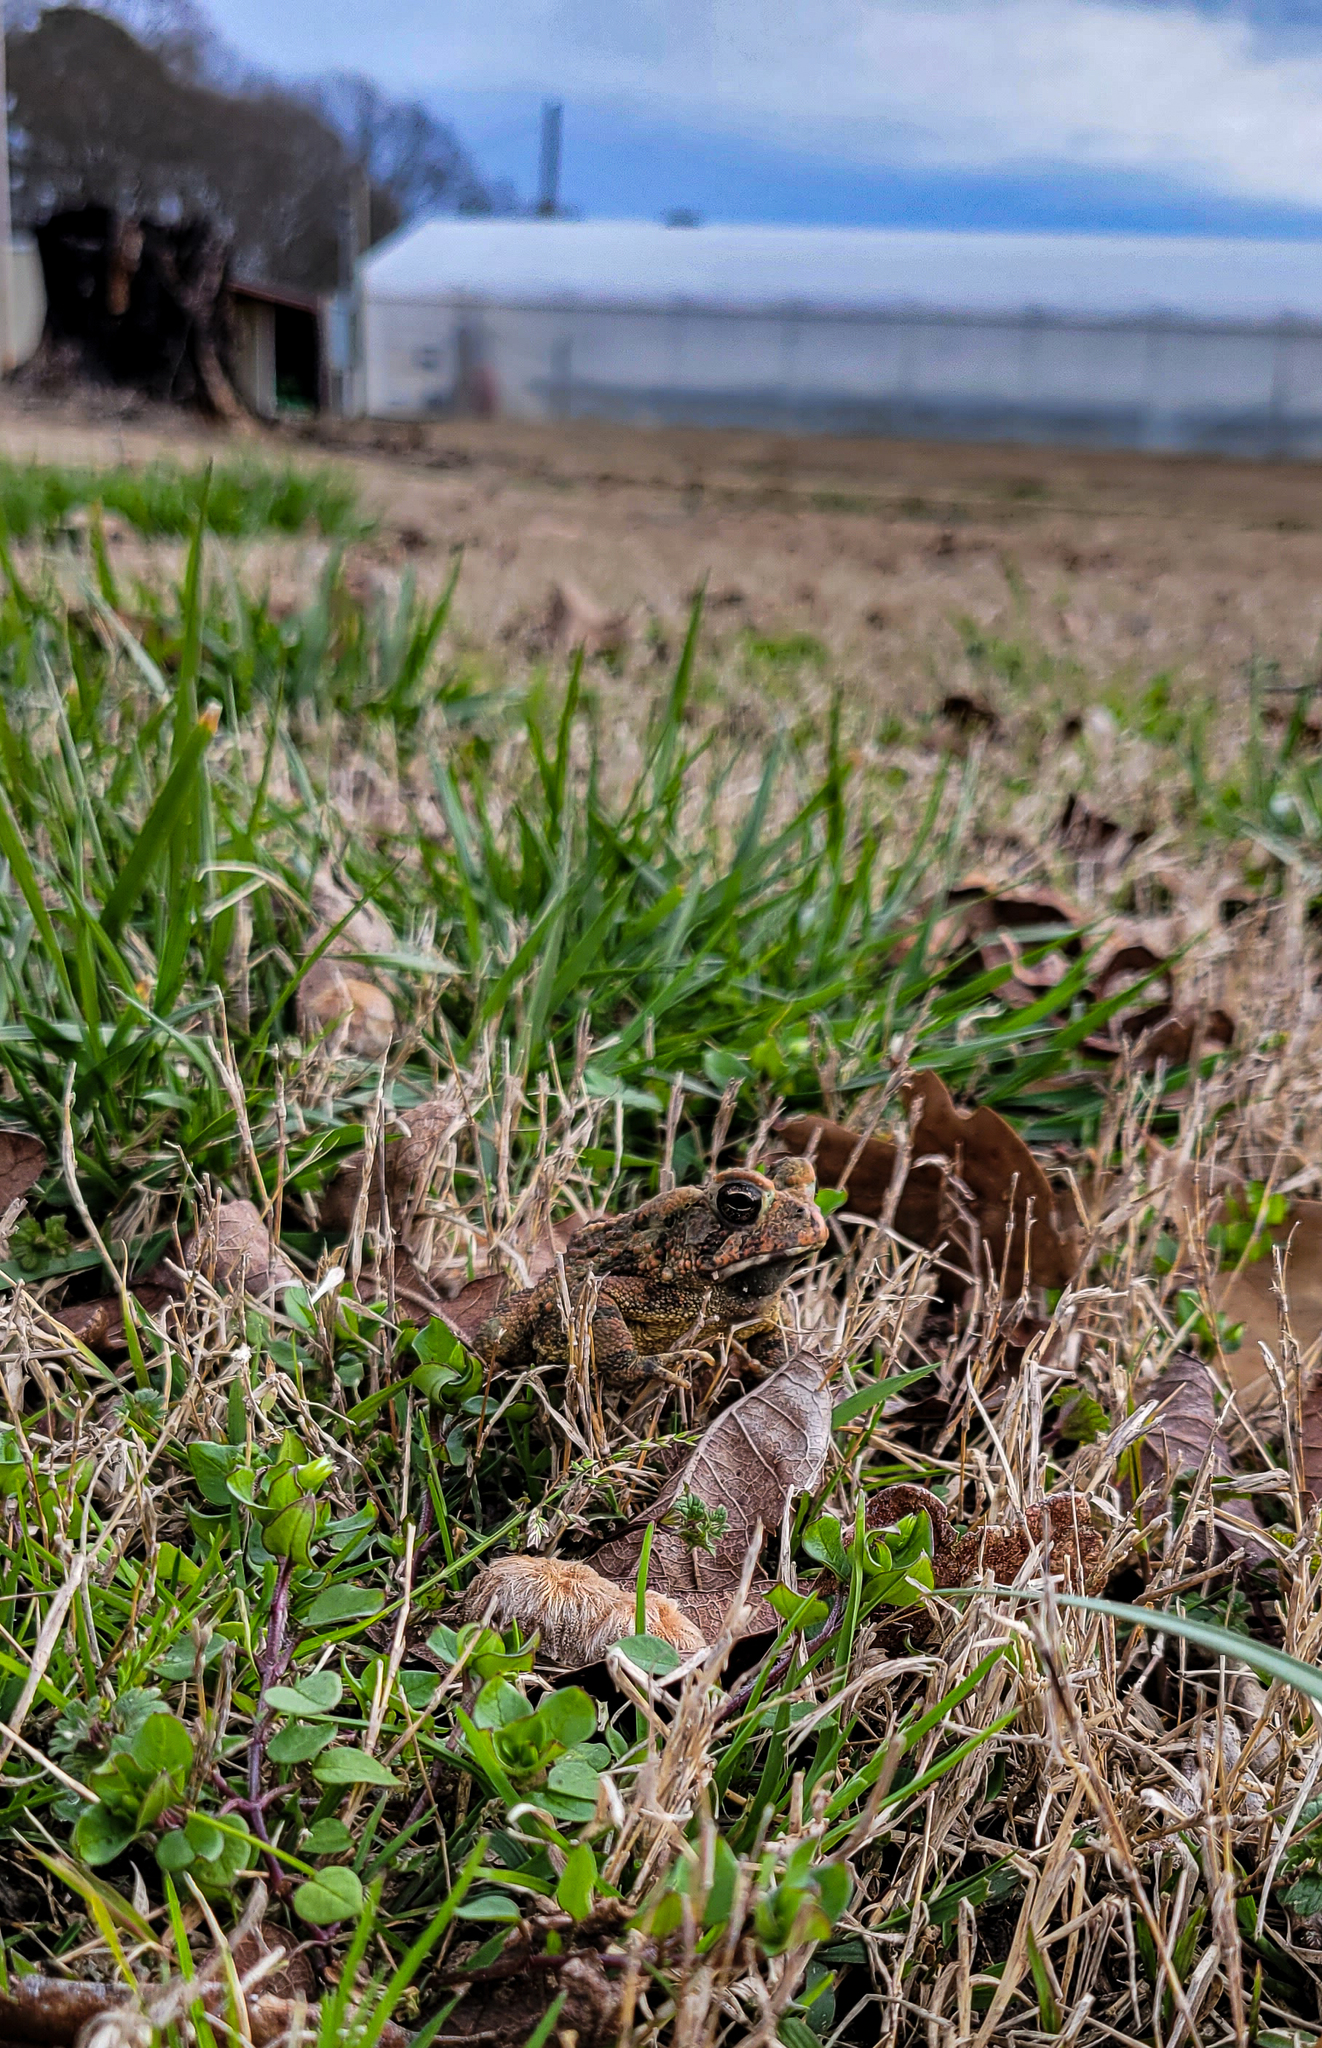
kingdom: Animalia
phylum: Chordata
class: Amphibia
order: Anura
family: Bufonidae
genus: Anaxyrus
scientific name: Anaxyrus fowleri
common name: Fowler's toad
